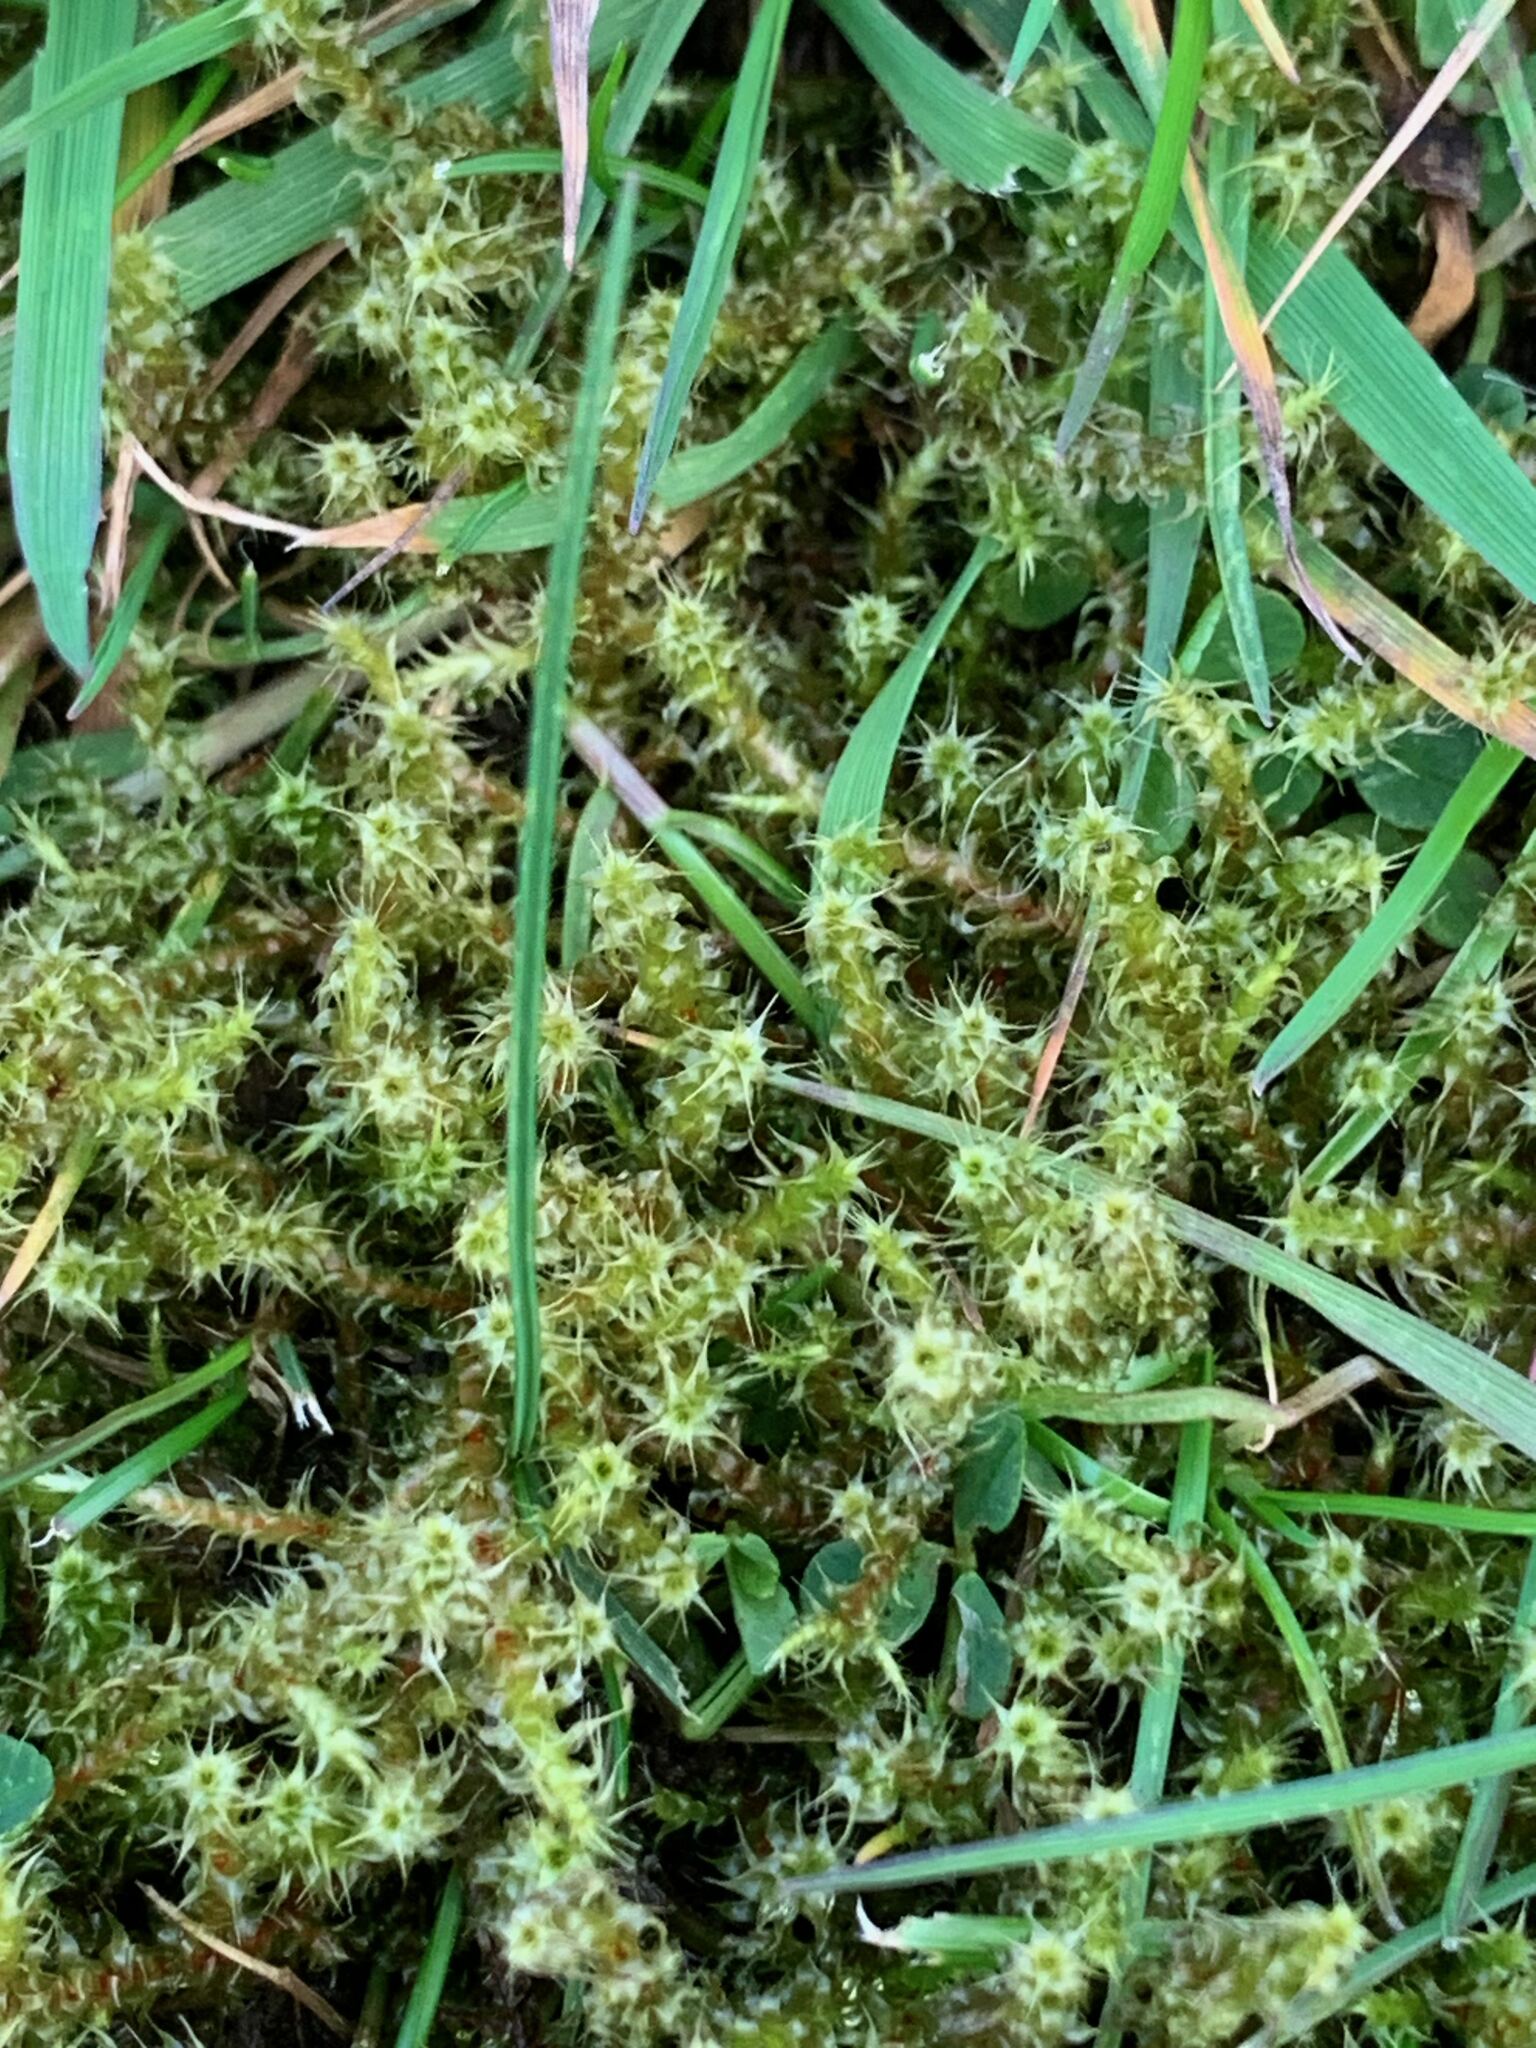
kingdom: Plantae
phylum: Bryophyta
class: Bryopsida
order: Hypnales
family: Hylocomiaceae
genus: Rhytidiadelphus
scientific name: Rhytidiadelphus squarrosus
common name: Springy turf-moss
